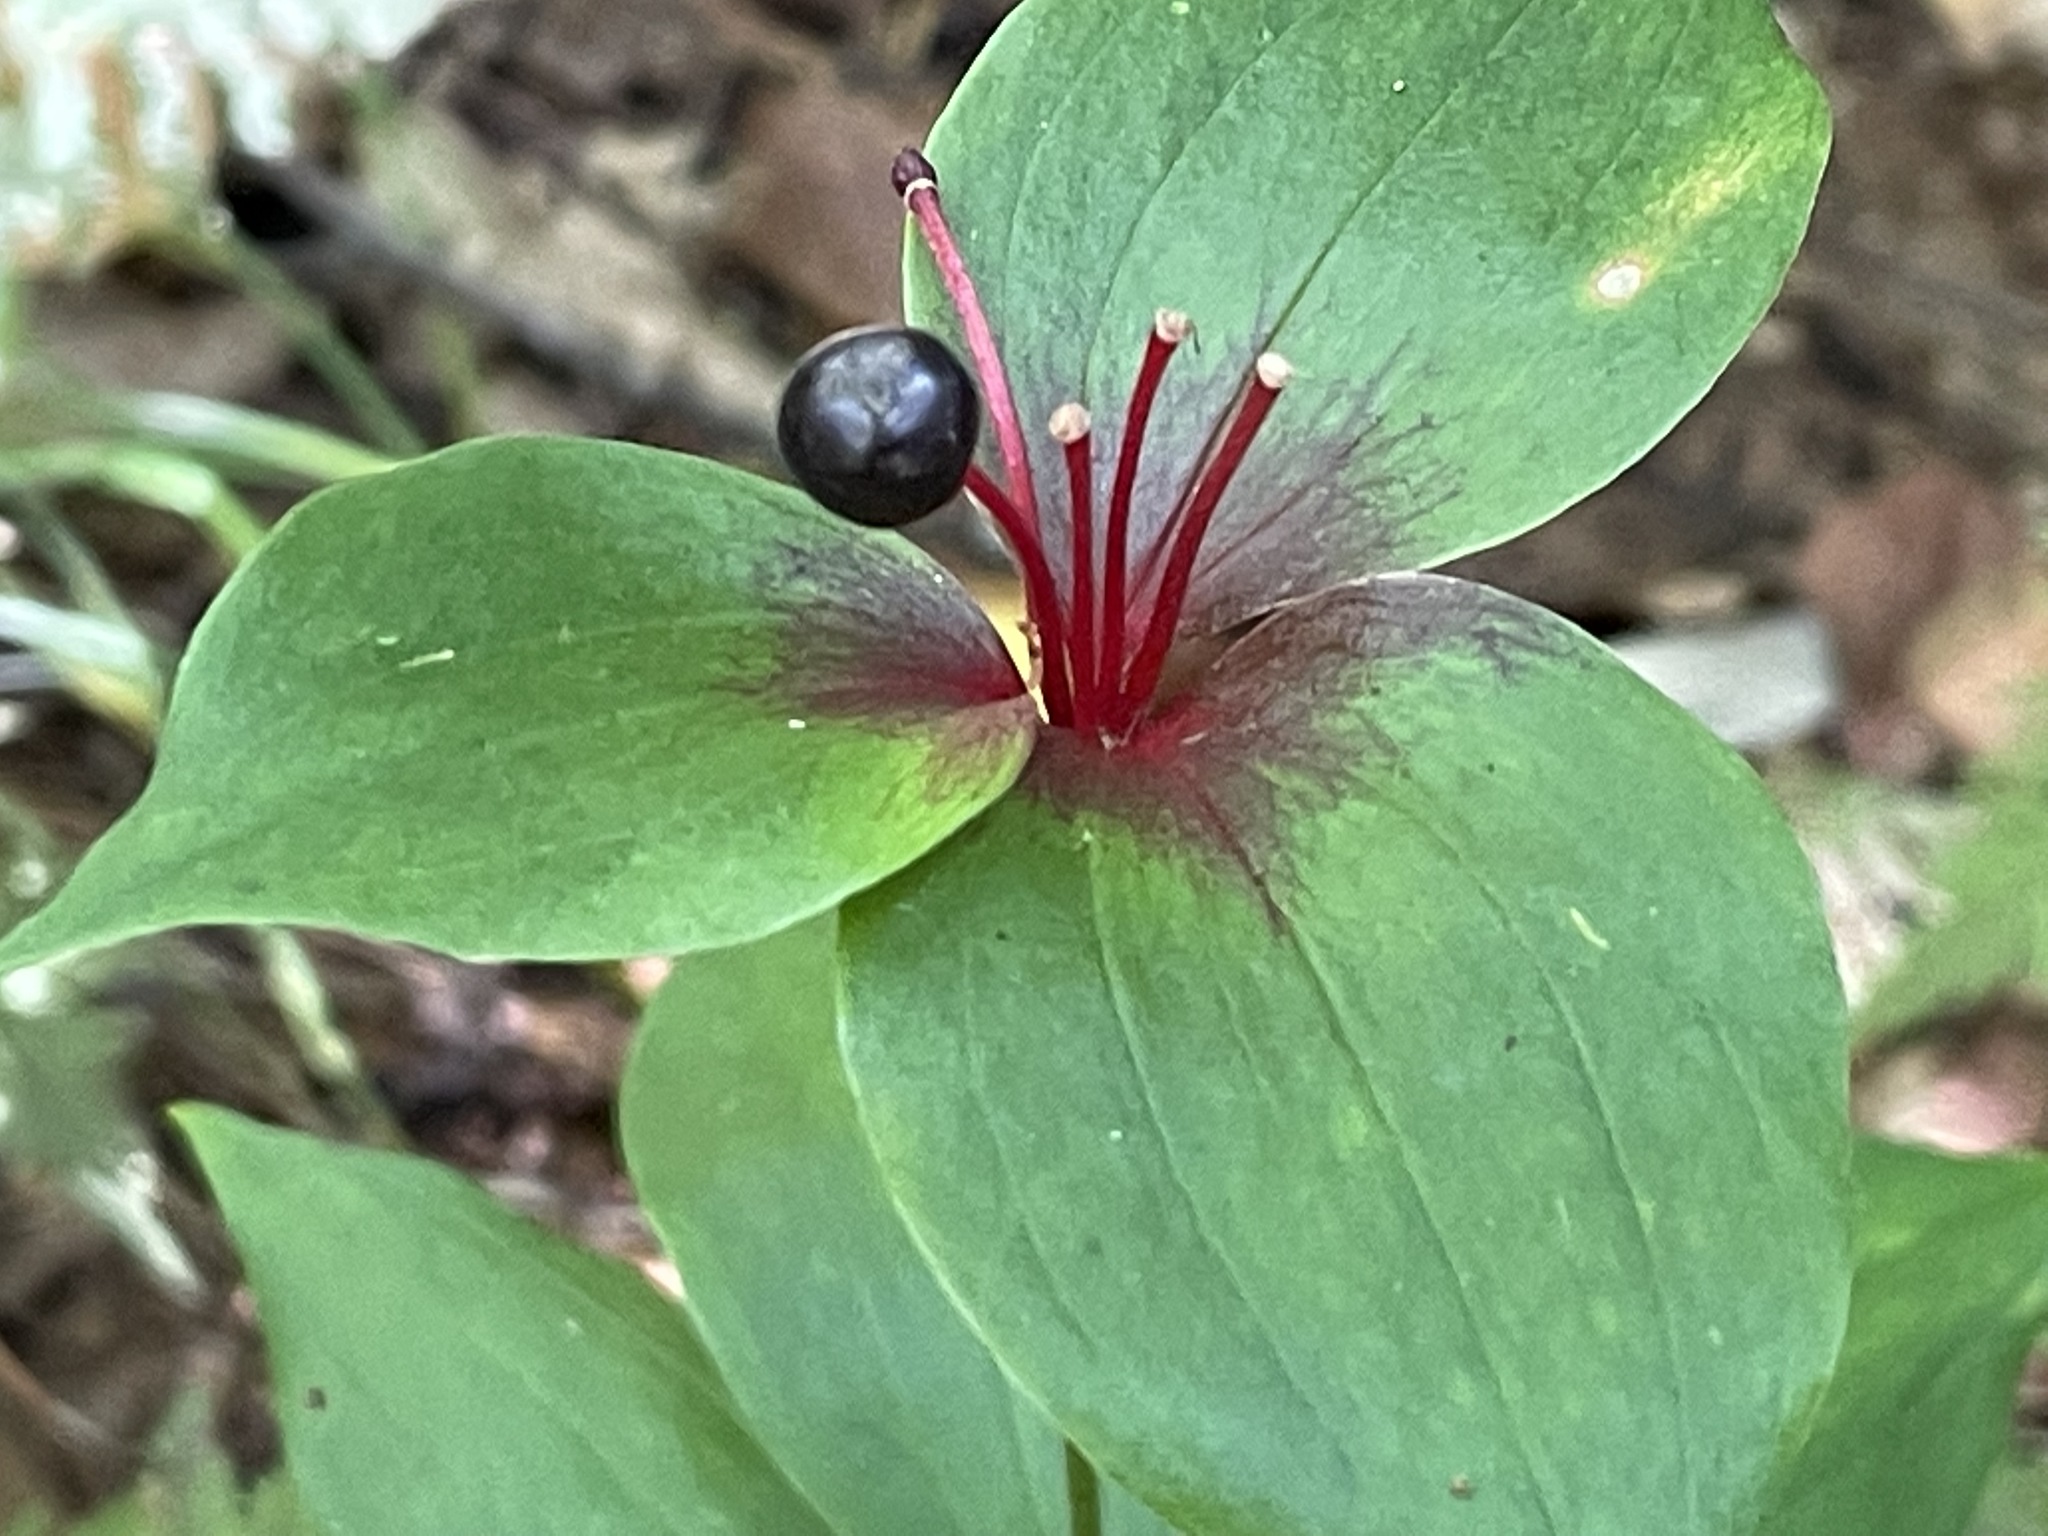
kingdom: Plantae
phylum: Tracheophyta
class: Liliopsida
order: Liliales
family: Liliaceae
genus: Medeola
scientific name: Medeola virginiana
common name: Indian cucumber-root
